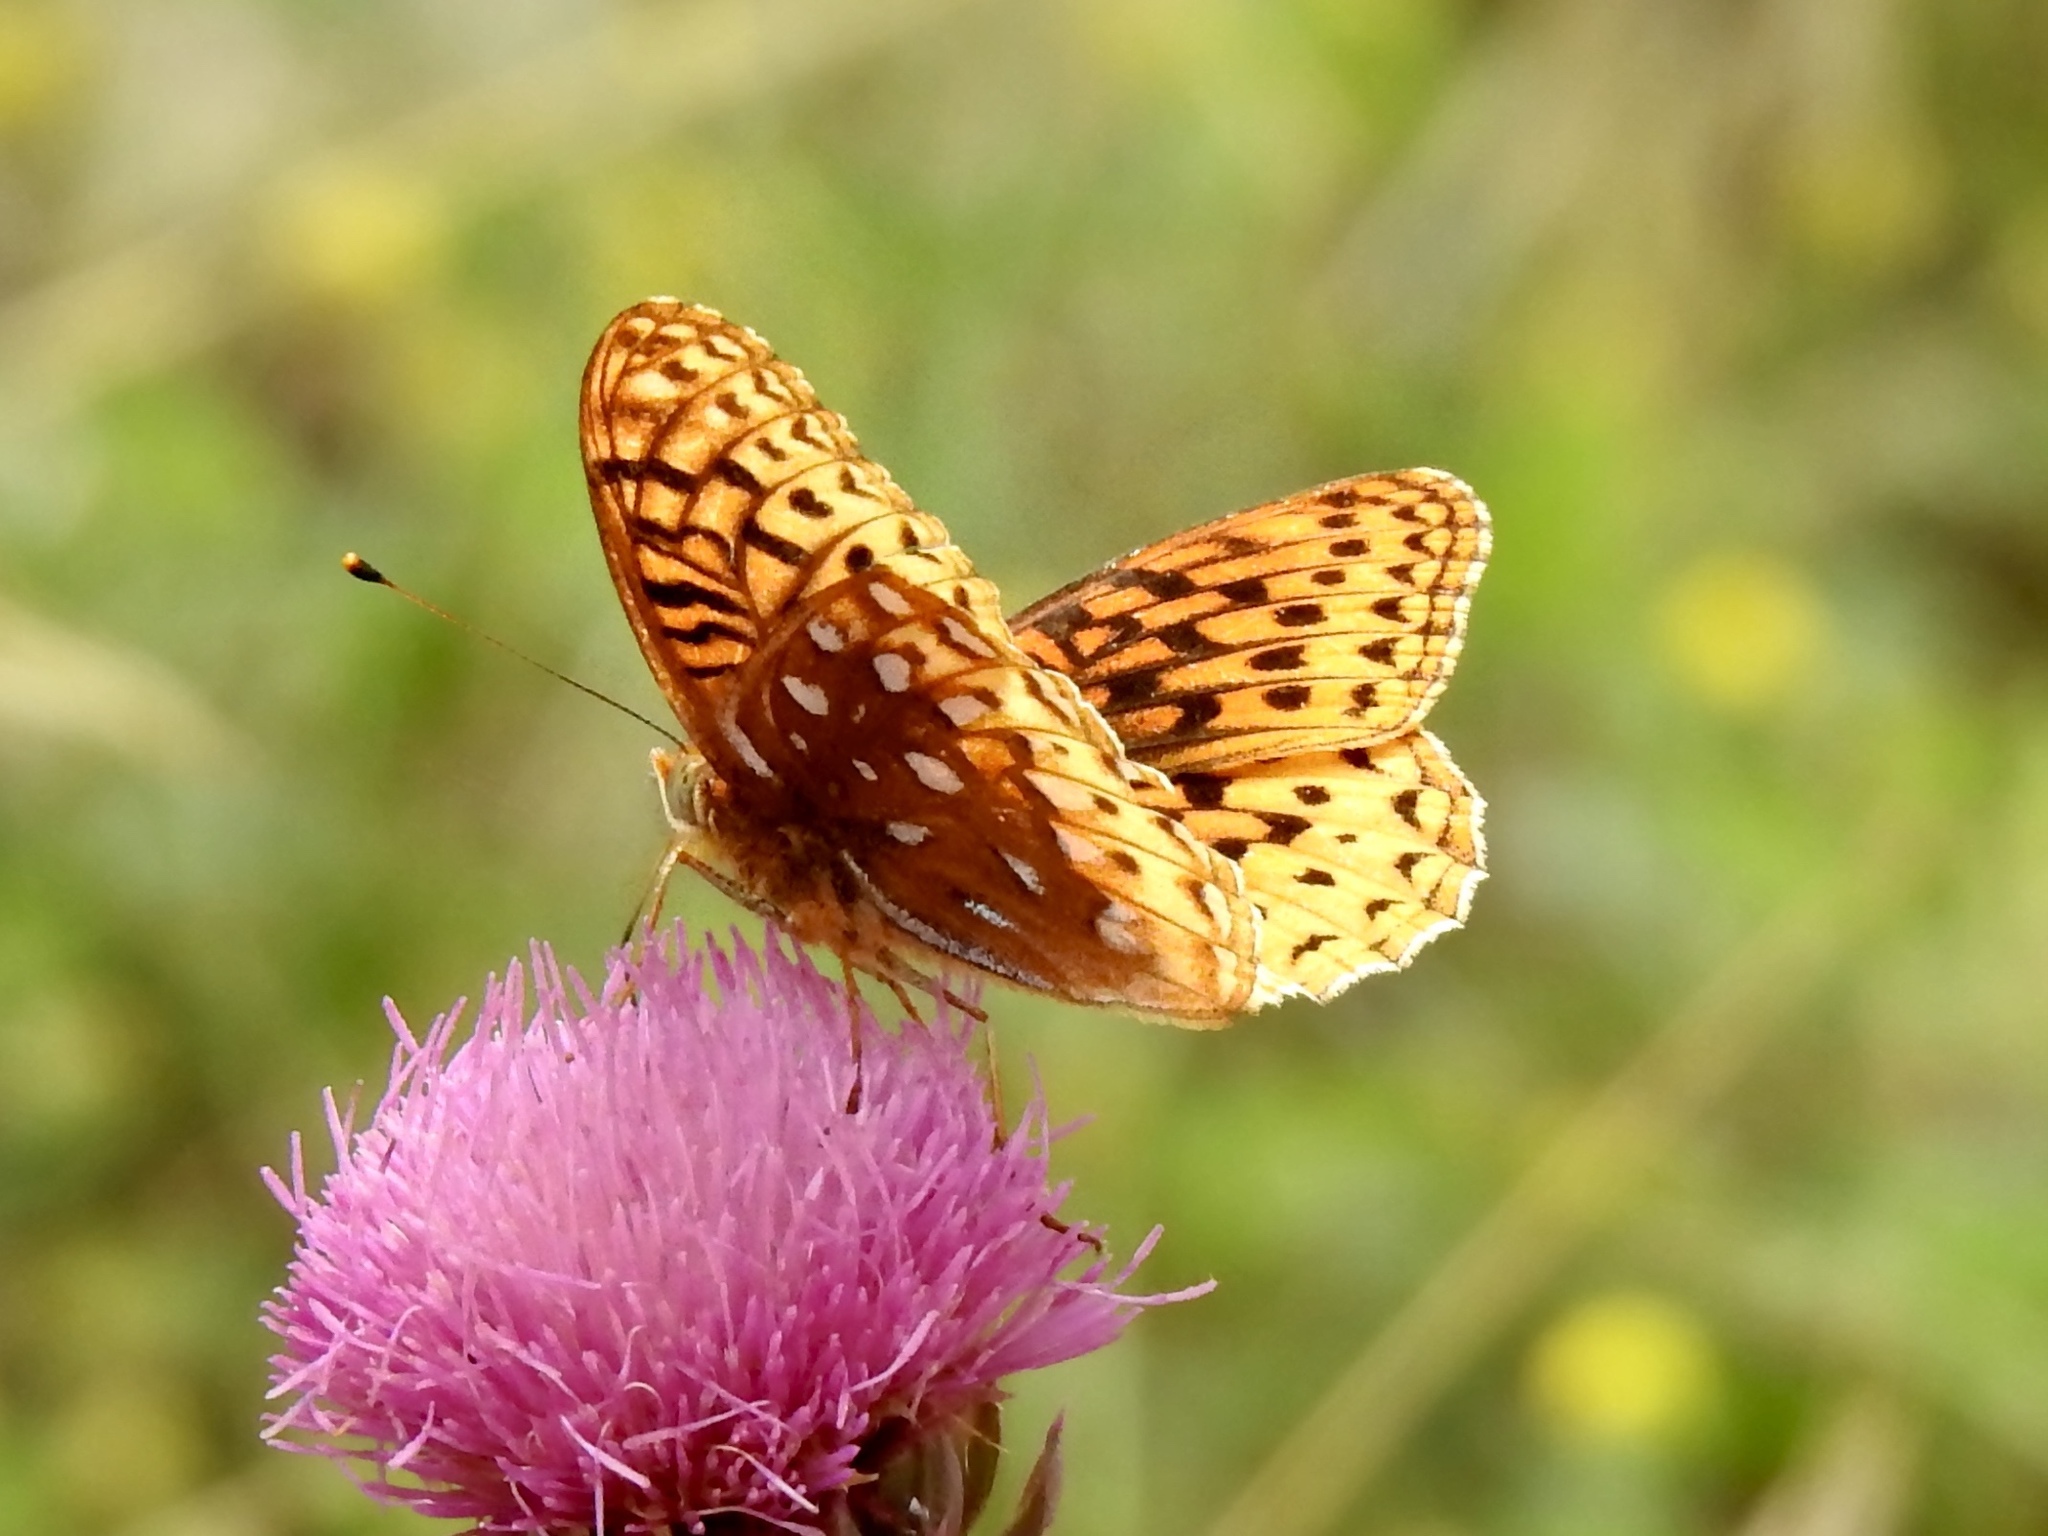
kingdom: Animalia
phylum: Arthropoda
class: Insecta
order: Lepidoptera
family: Nymphalidae
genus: Speyeria
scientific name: Speyeria atlantis
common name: Atlantis fritillary
